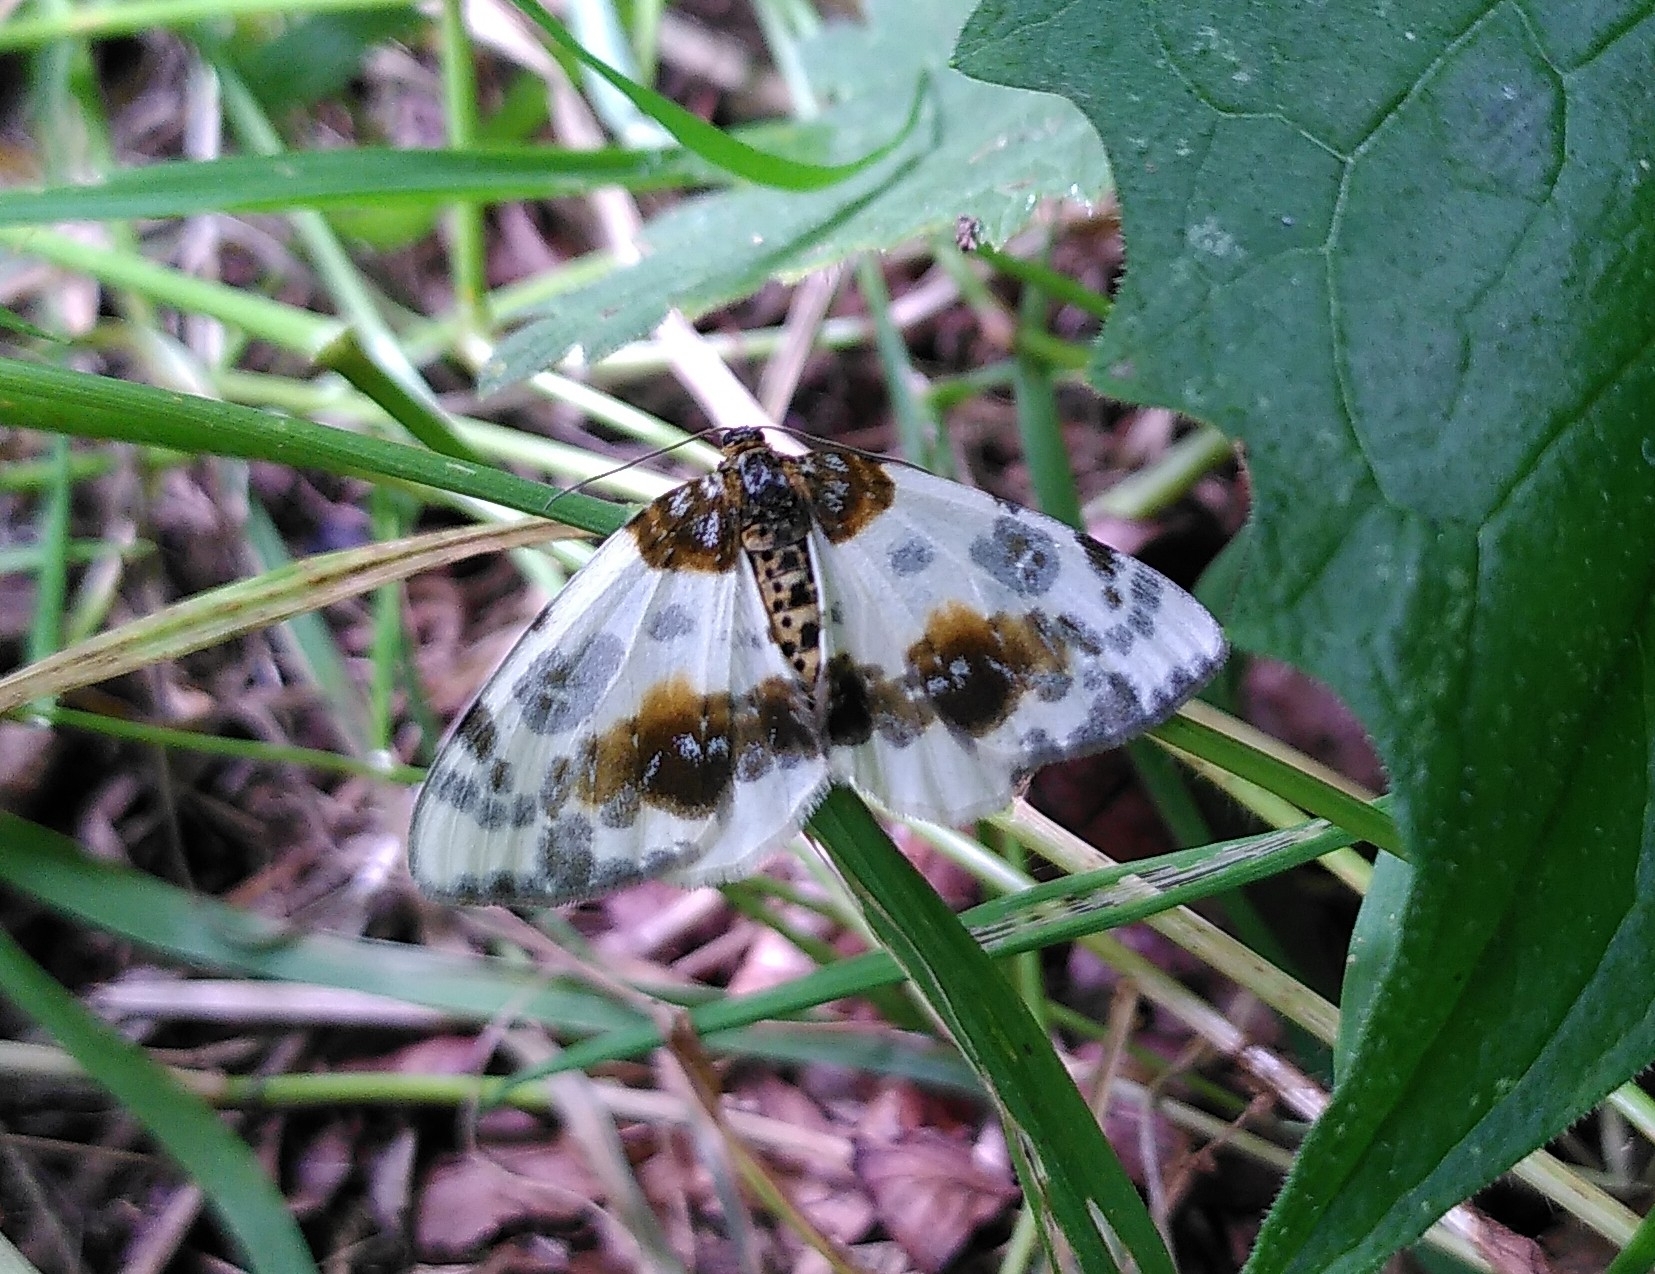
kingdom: Animalia
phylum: Arthropoda
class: Insecta
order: Lepidoptera
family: Geometridae
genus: Abraxas
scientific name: Abraxas sylvata
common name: Clouded magpie
